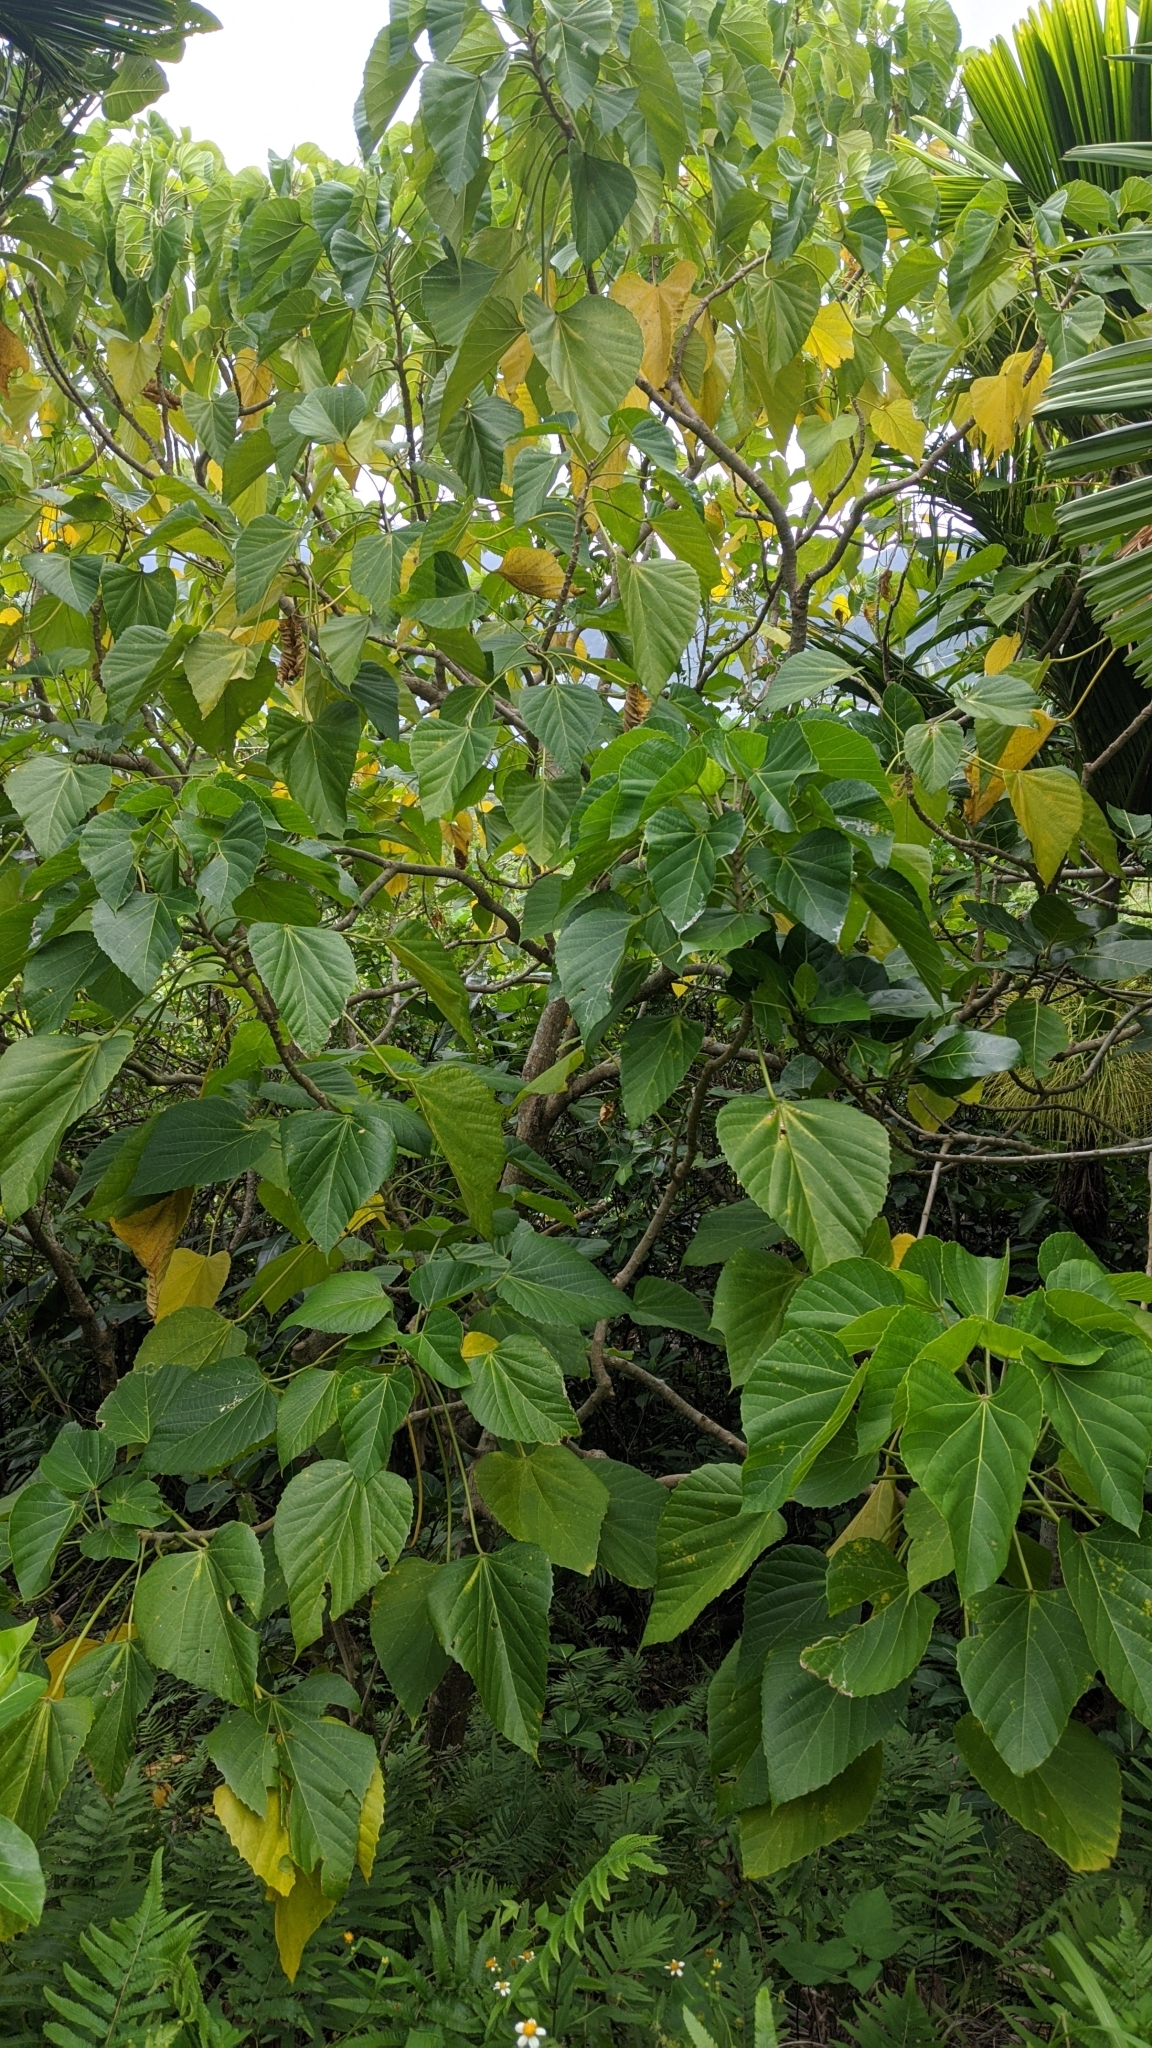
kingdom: Plantae
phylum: Tracheophyta
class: Magnoliopsida
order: Malpighiales
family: Euphorbiaceae
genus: Melanolepis
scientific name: Melanolepis multiglandulosa
